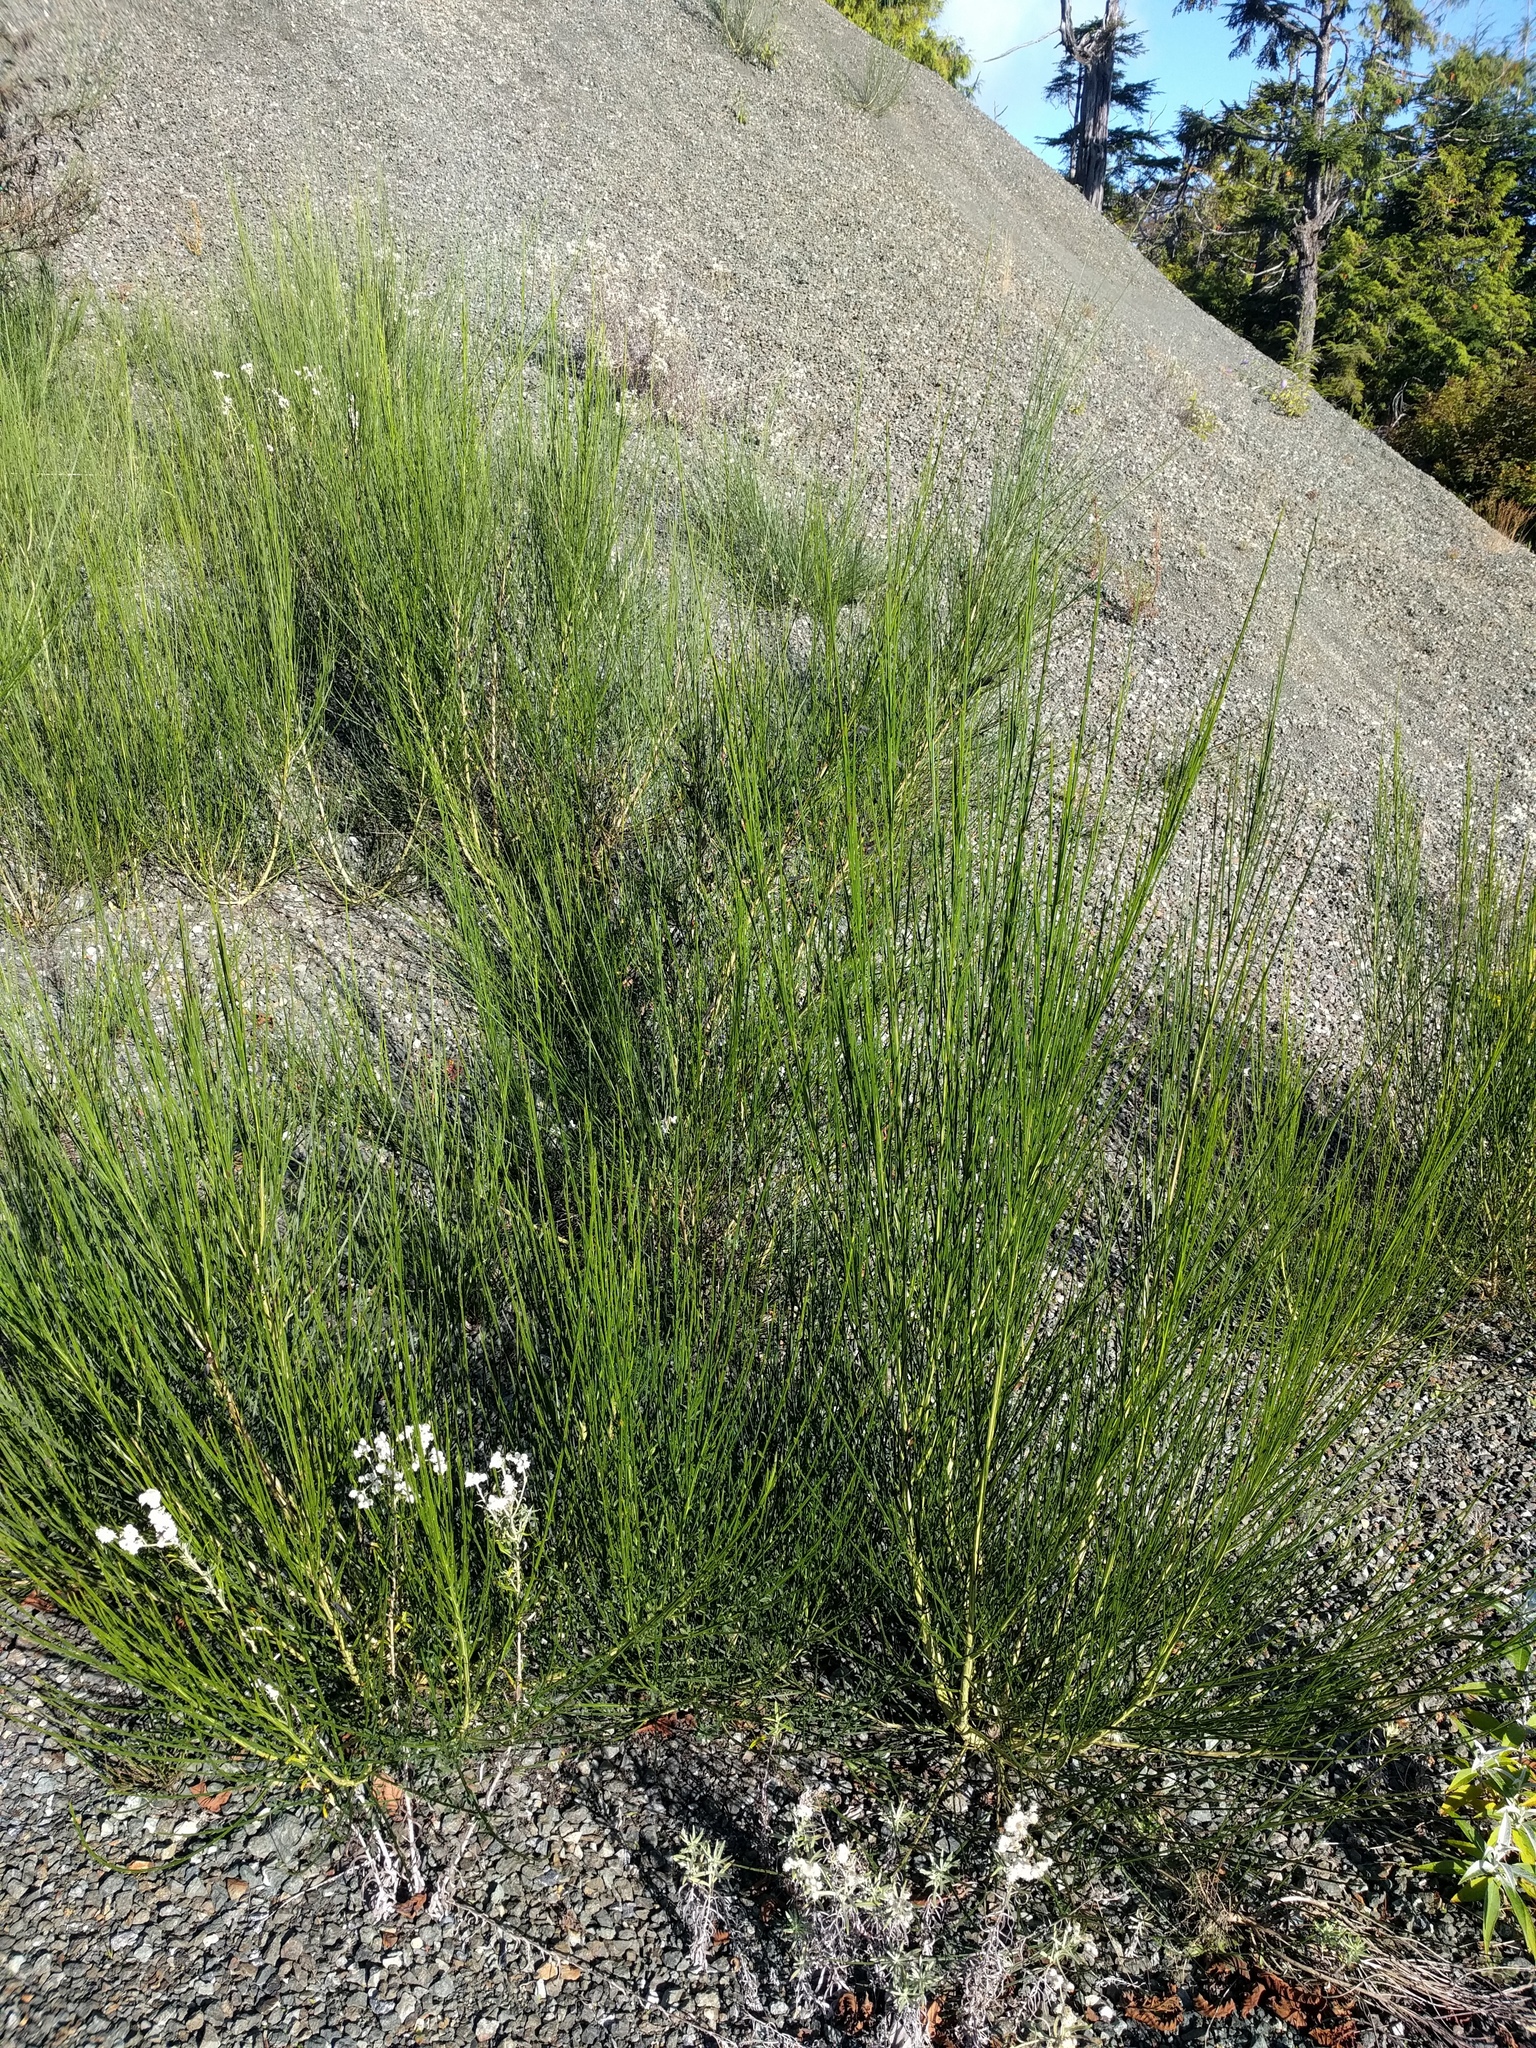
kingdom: Plantae
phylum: Tracheophyta
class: Magnoliopsida
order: Fabales
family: Fabaceae
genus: Cytisus
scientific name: Cytisus scoparius
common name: Scotch broom
